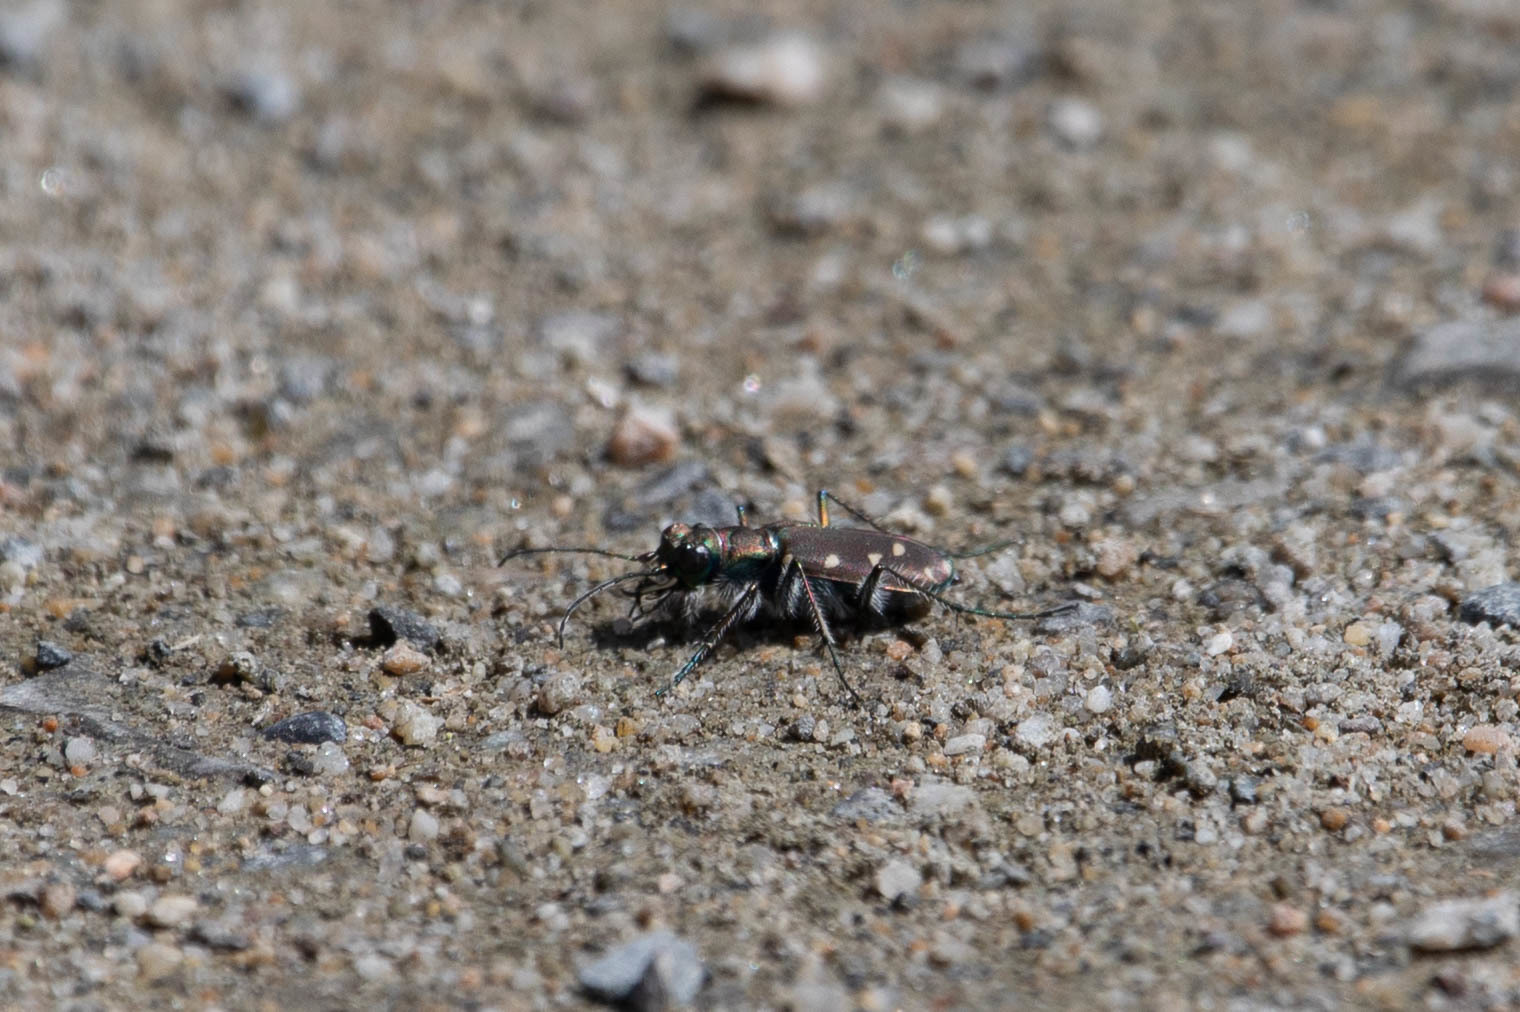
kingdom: Animalia
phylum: Arthropoda
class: Insecta
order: Coleoptera
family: Carabidae
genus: Cicindela
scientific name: Cicindela oregona
